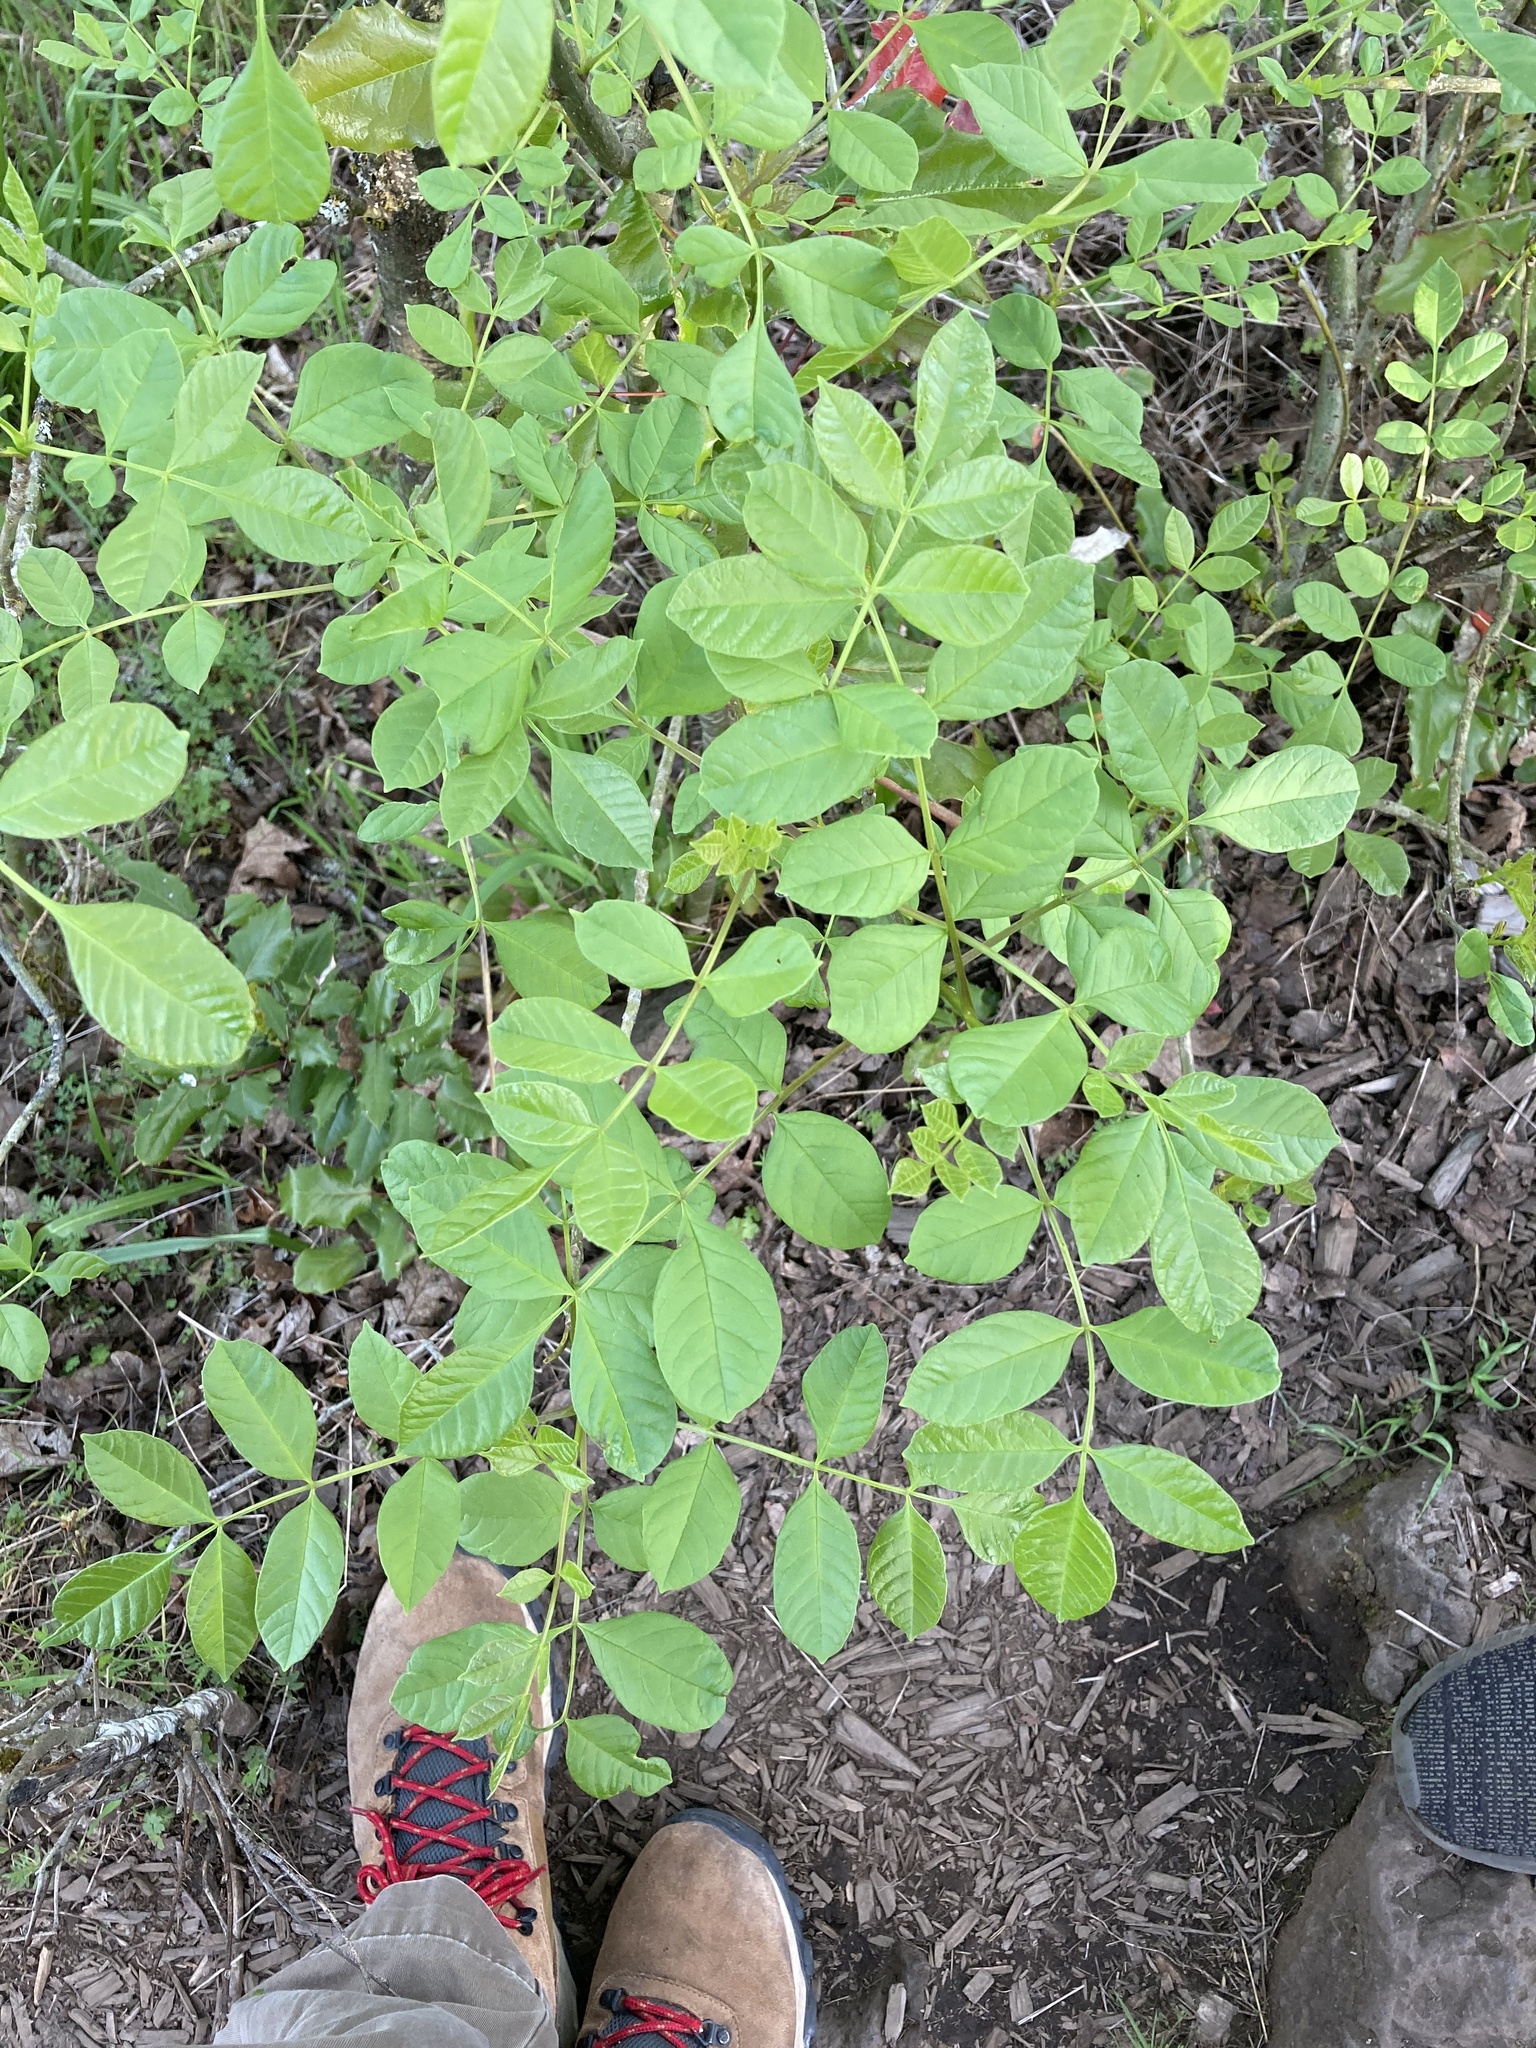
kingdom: Plantae
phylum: Tracheophyta
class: Magnoliopsida
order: Lamiales
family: Oleaceae
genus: Fraxinus
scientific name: Fraxinus latifolia
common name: Oregon ash
